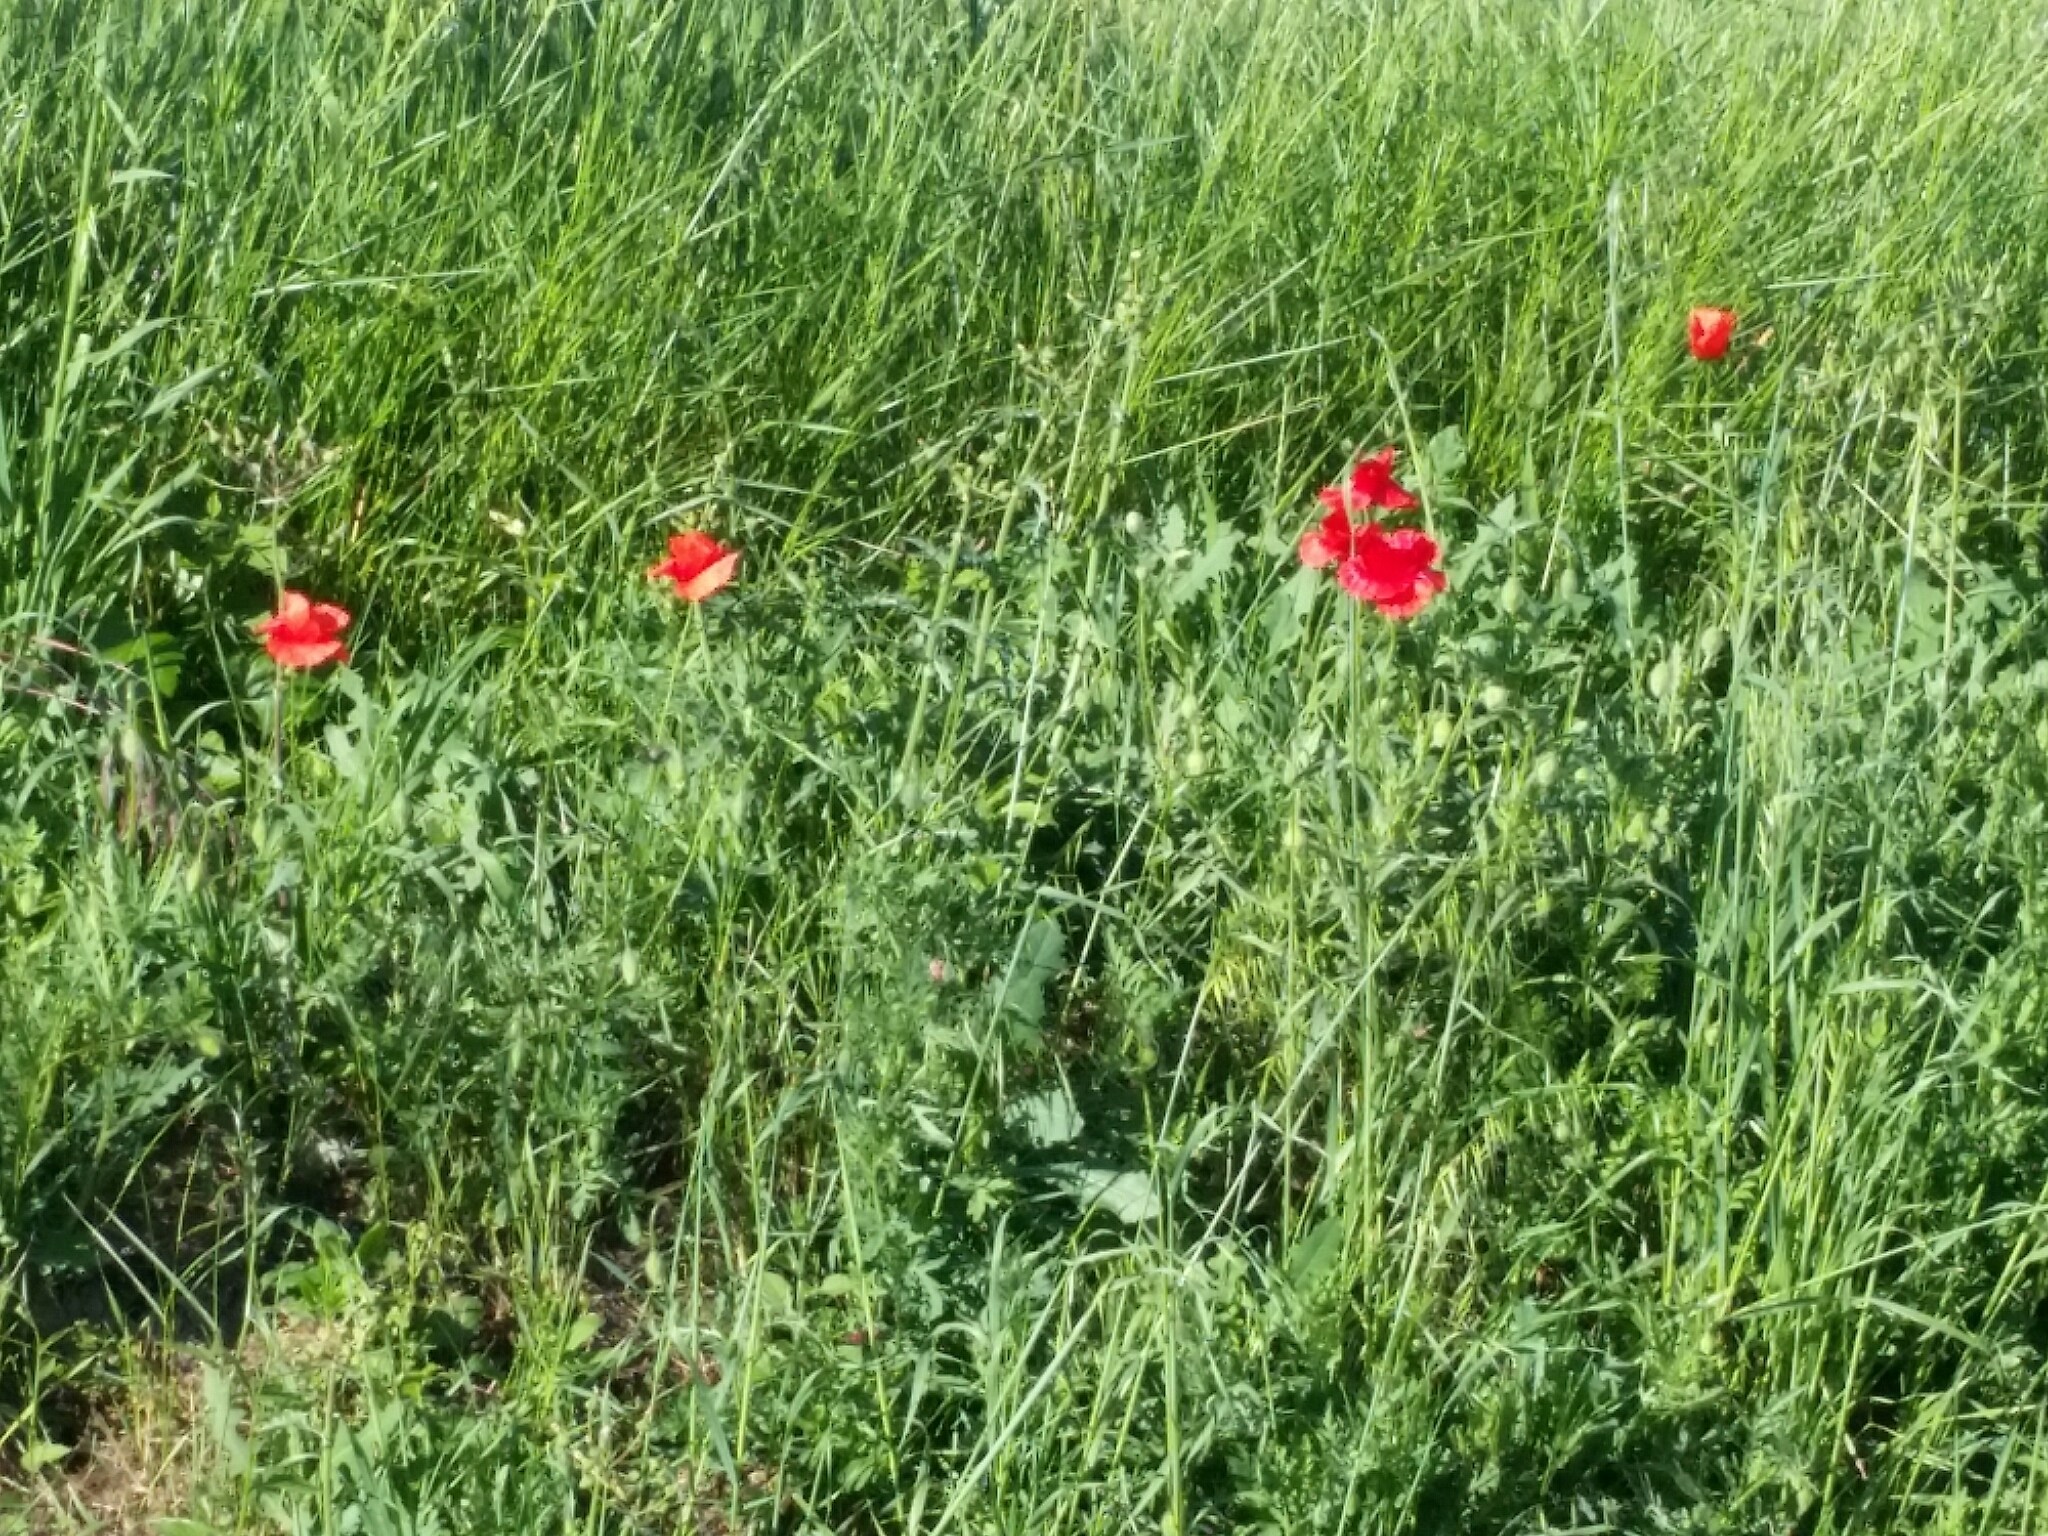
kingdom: Plantae
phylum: Tracheophyta
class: Magnoliopsida
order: Ranunculales
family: Papaveraceae
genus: Papaver
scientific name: Papaver rhoeas
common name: Corn poppy
